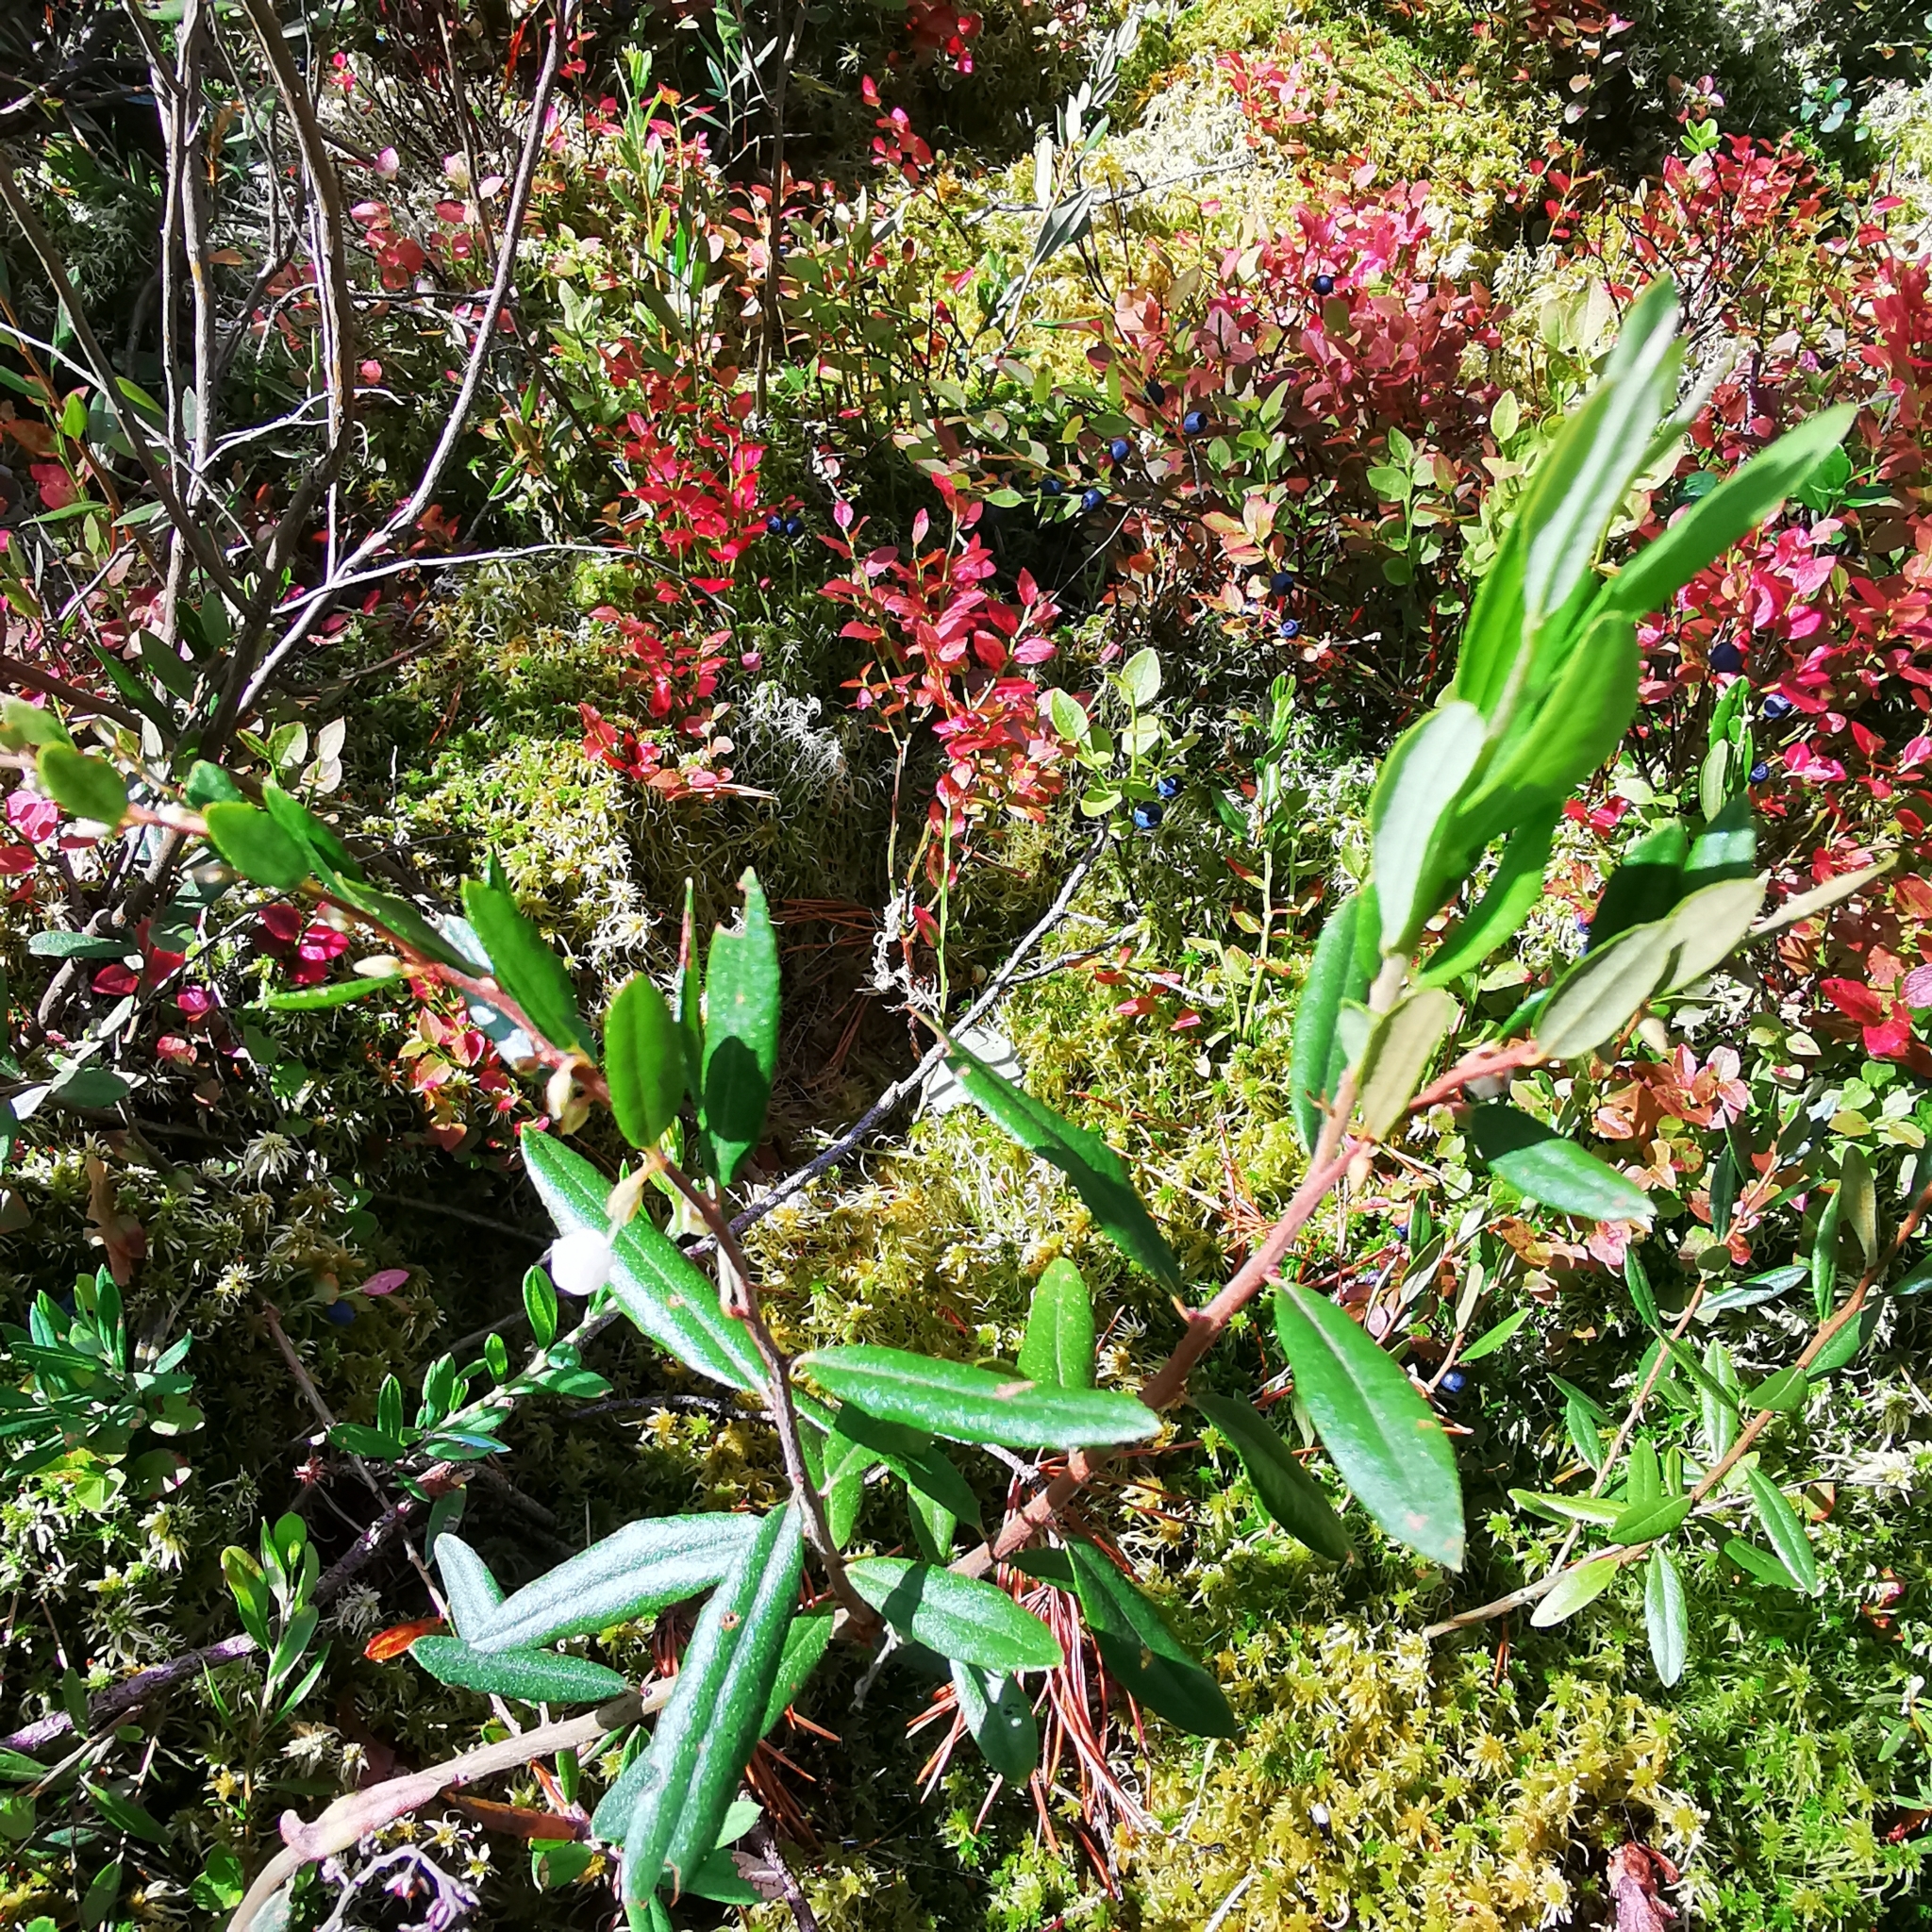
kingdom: Plantae
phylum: Tracheophyta
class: Magnoliopsida
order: Ericales
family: Ericaceae
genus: Andromeda
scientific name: Andromeda polifolia
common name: Bog-rosemary
